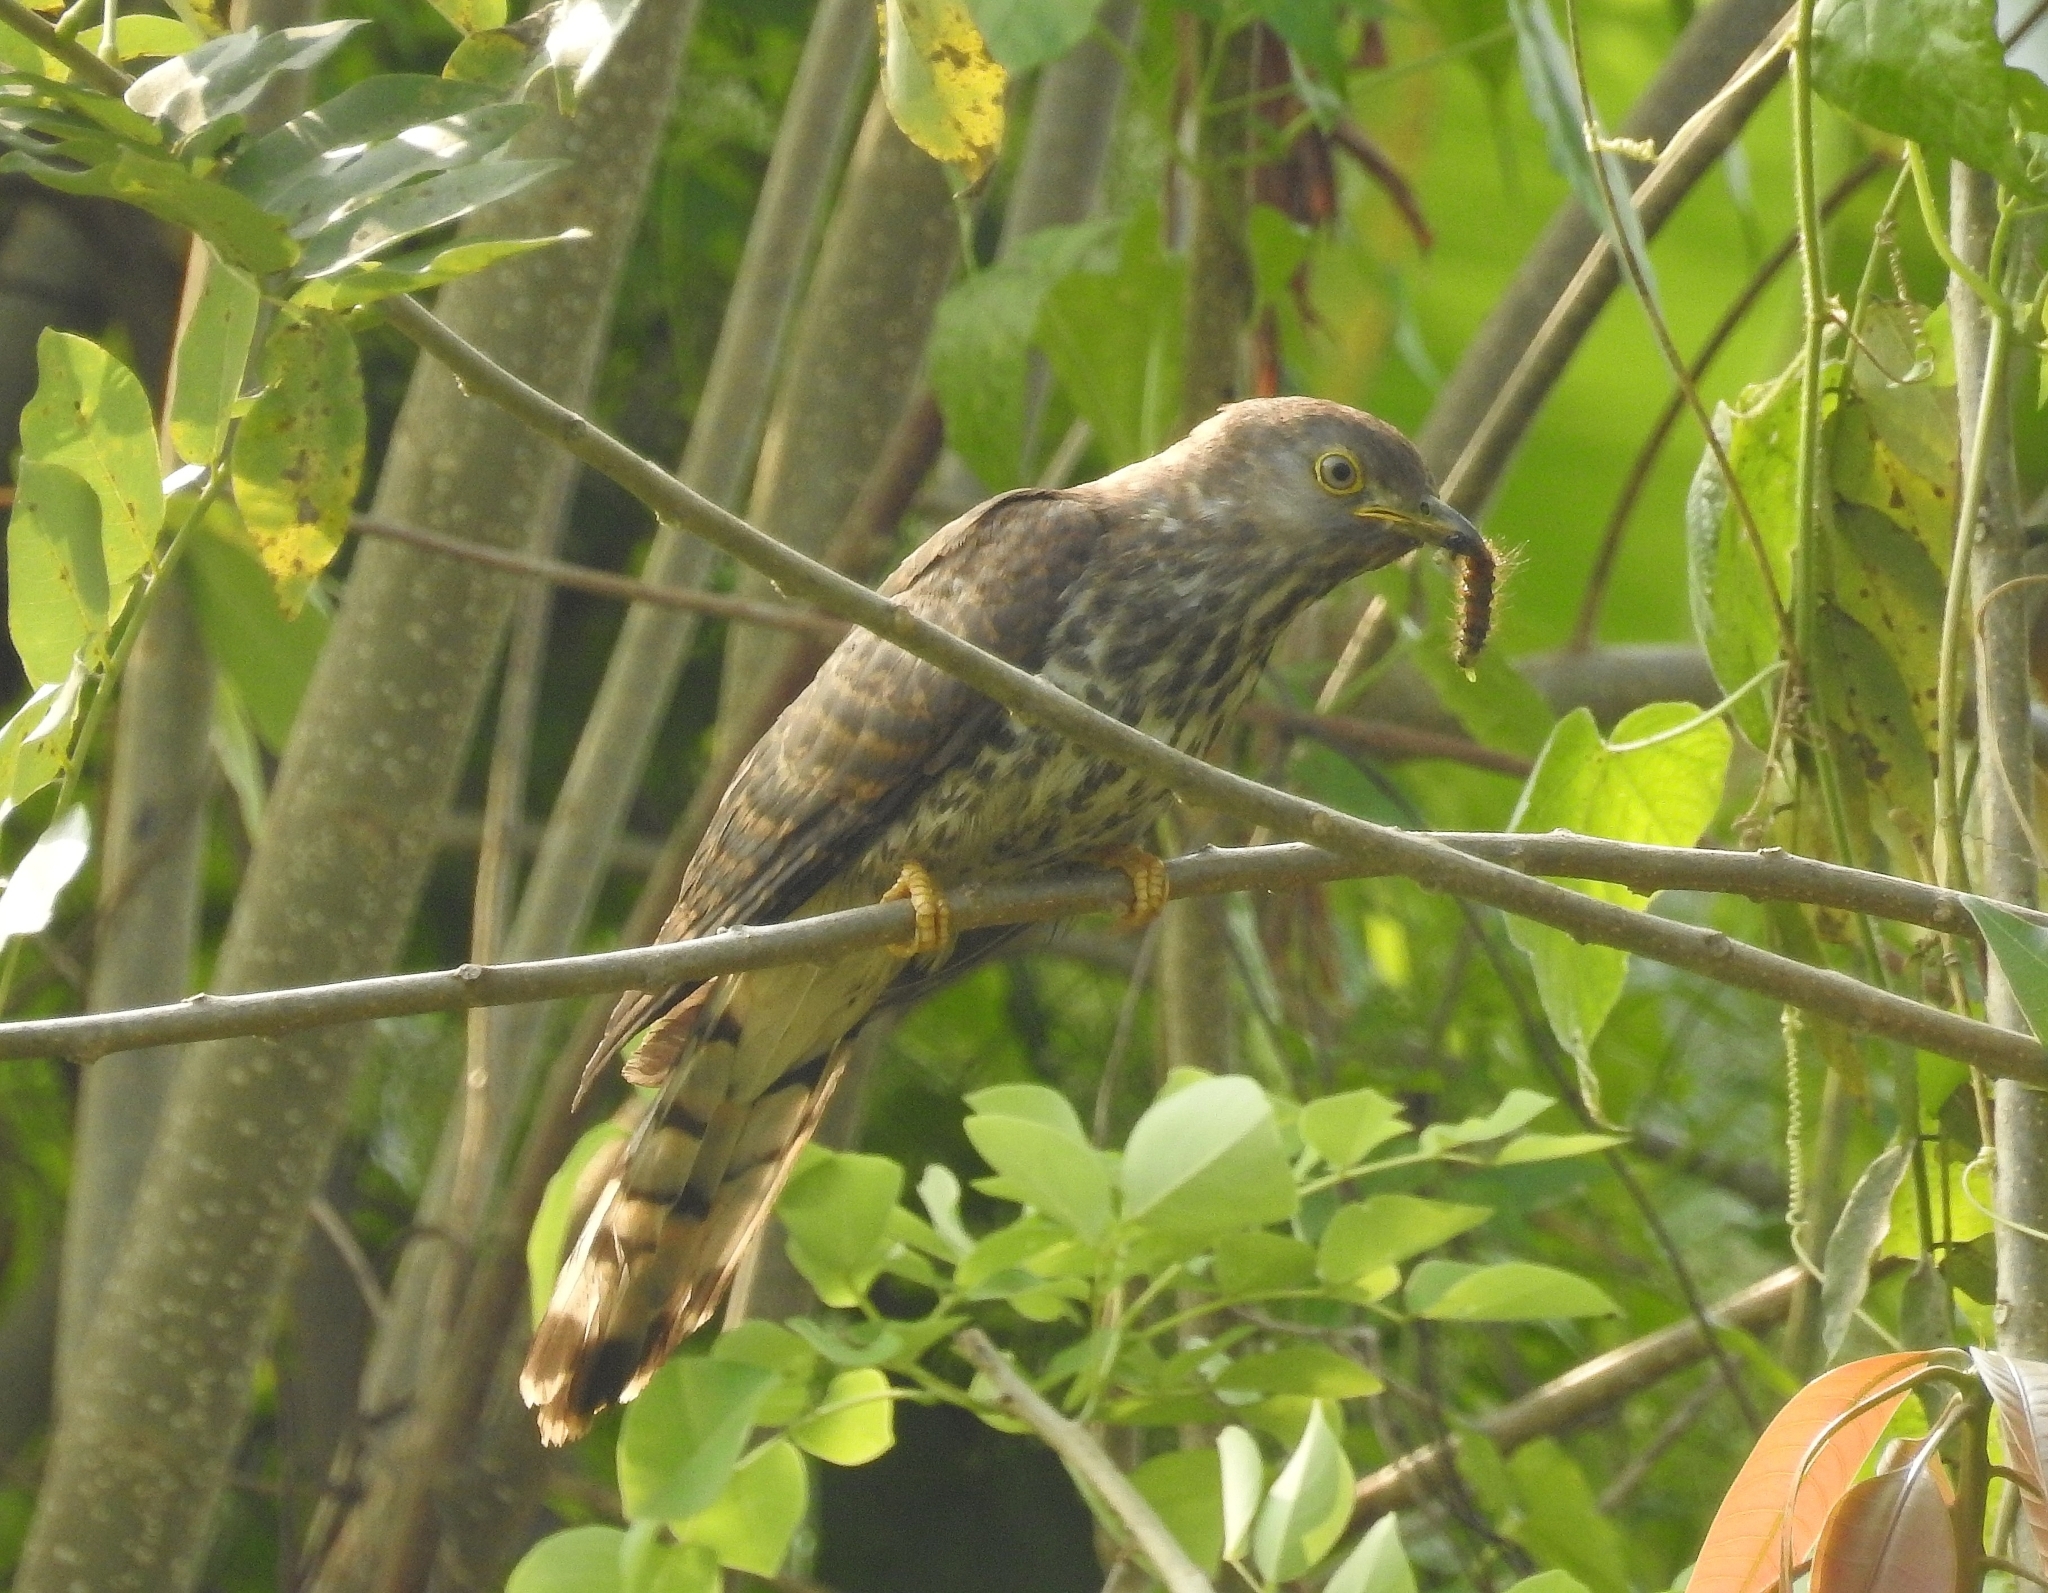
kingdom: Animalia
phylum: Chordata
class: Aves
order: Cuculiformes
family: Cuculidae
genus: Cuculus
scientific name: Cuculus varius
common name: Common hawk cuckoo
